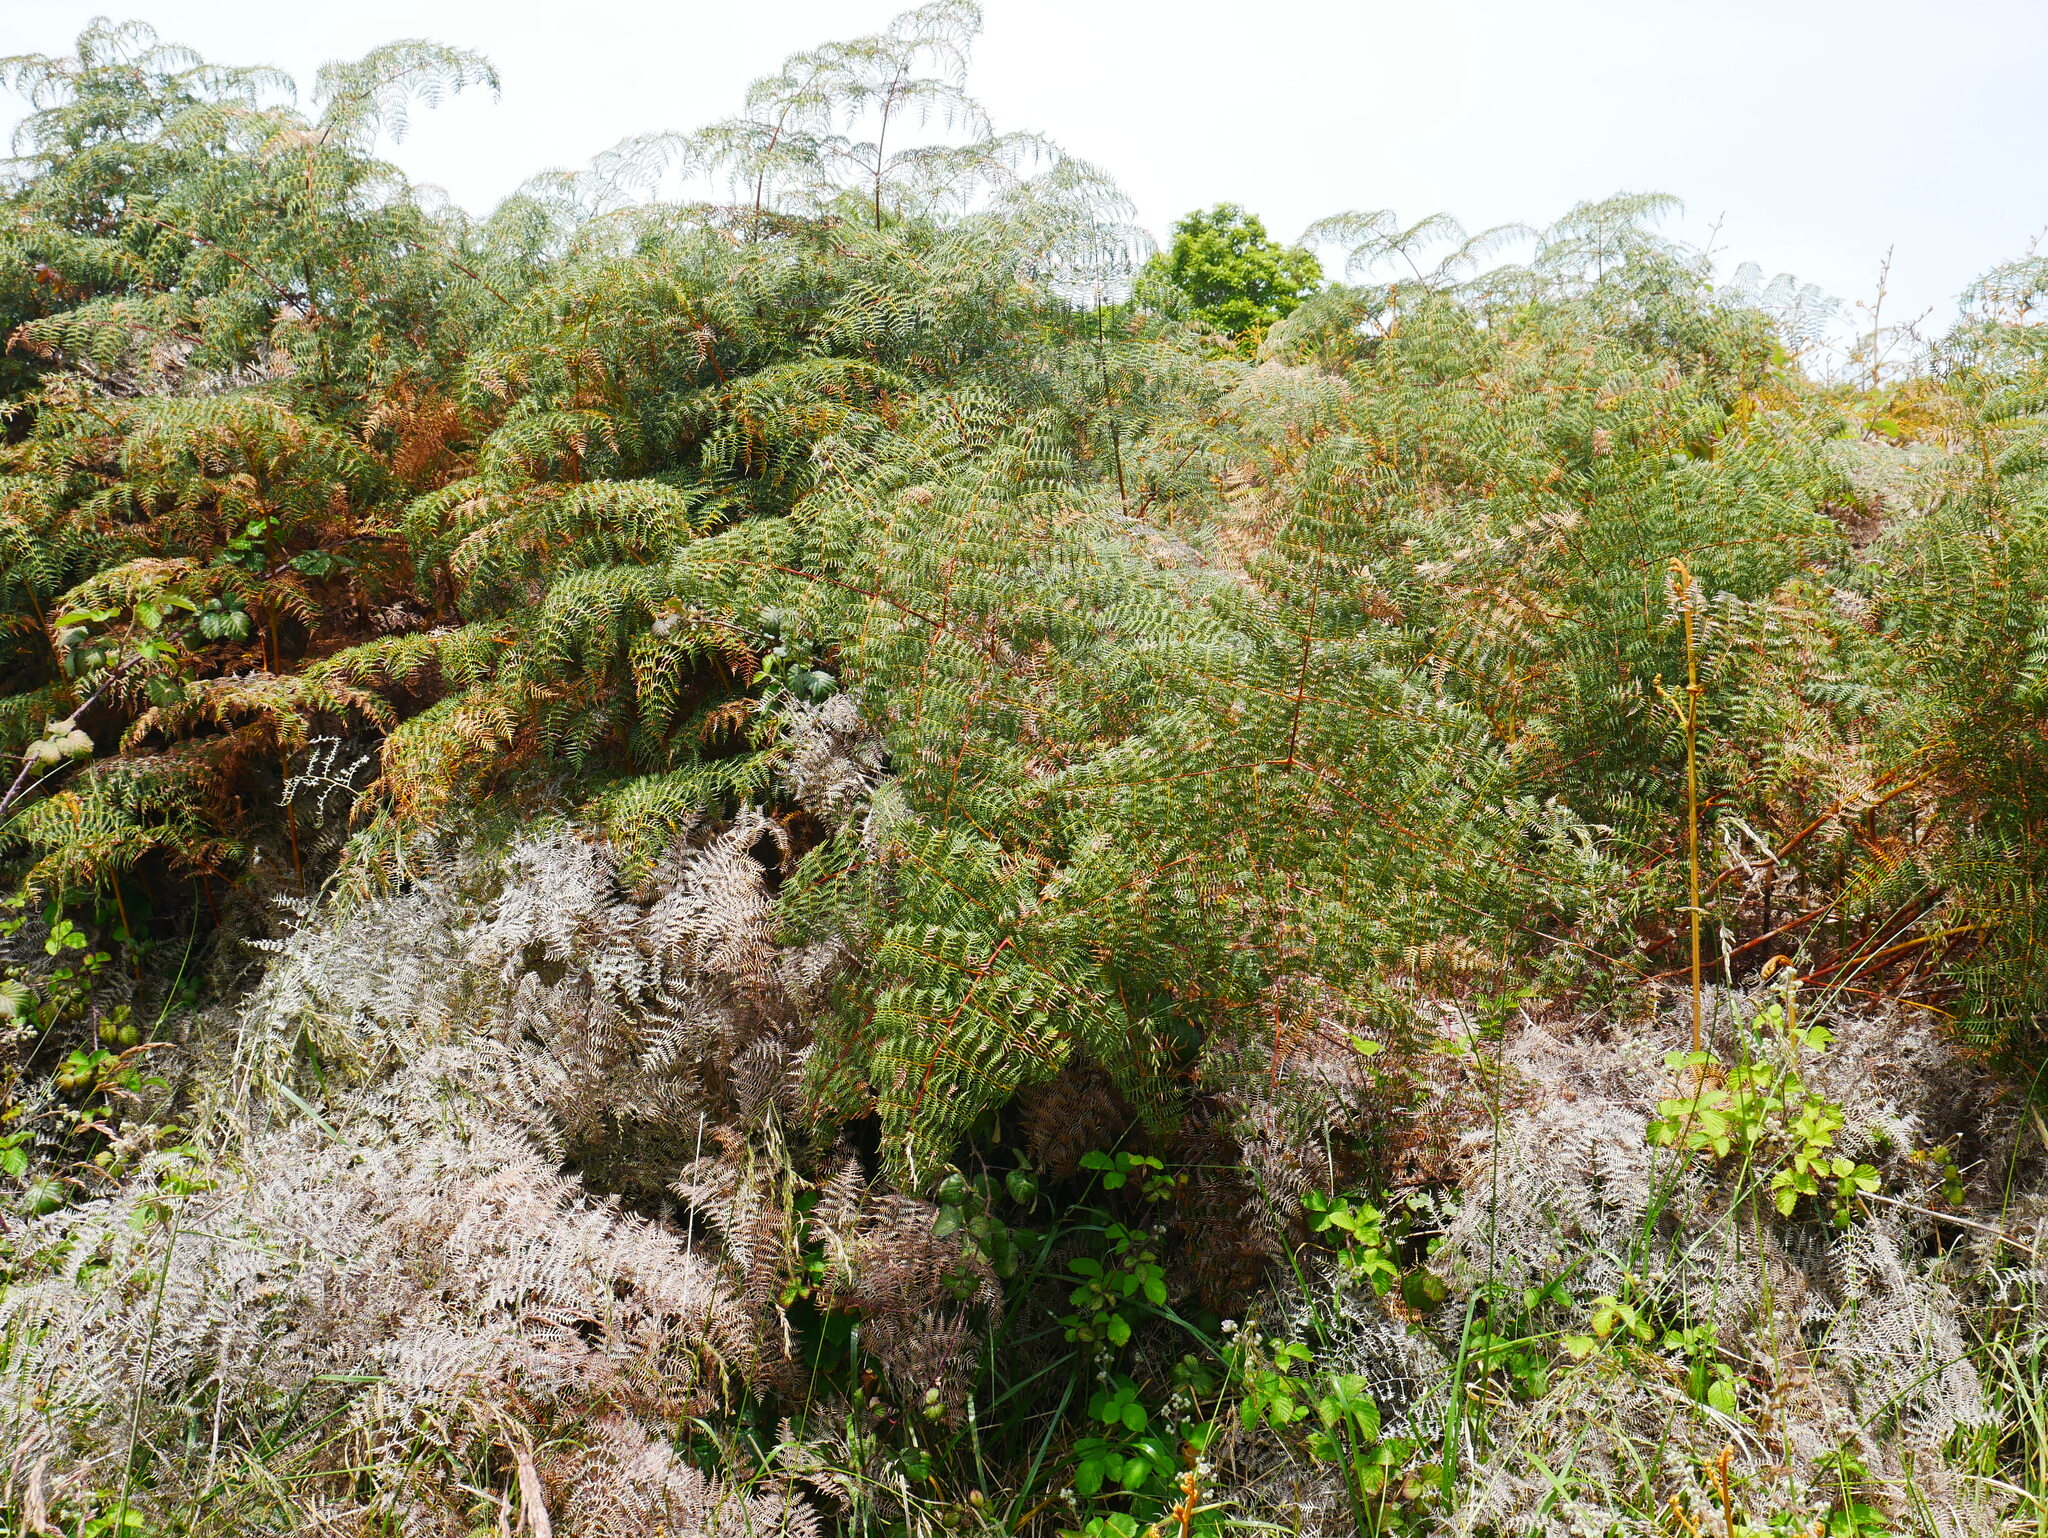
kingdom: Plantae
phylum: Tracheophyta
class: Polypodiopsida
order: Polypodiales
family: Dennstaedtiaceae
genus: Pteridium
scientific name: Pteridium esculentum
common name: Bracken fern
